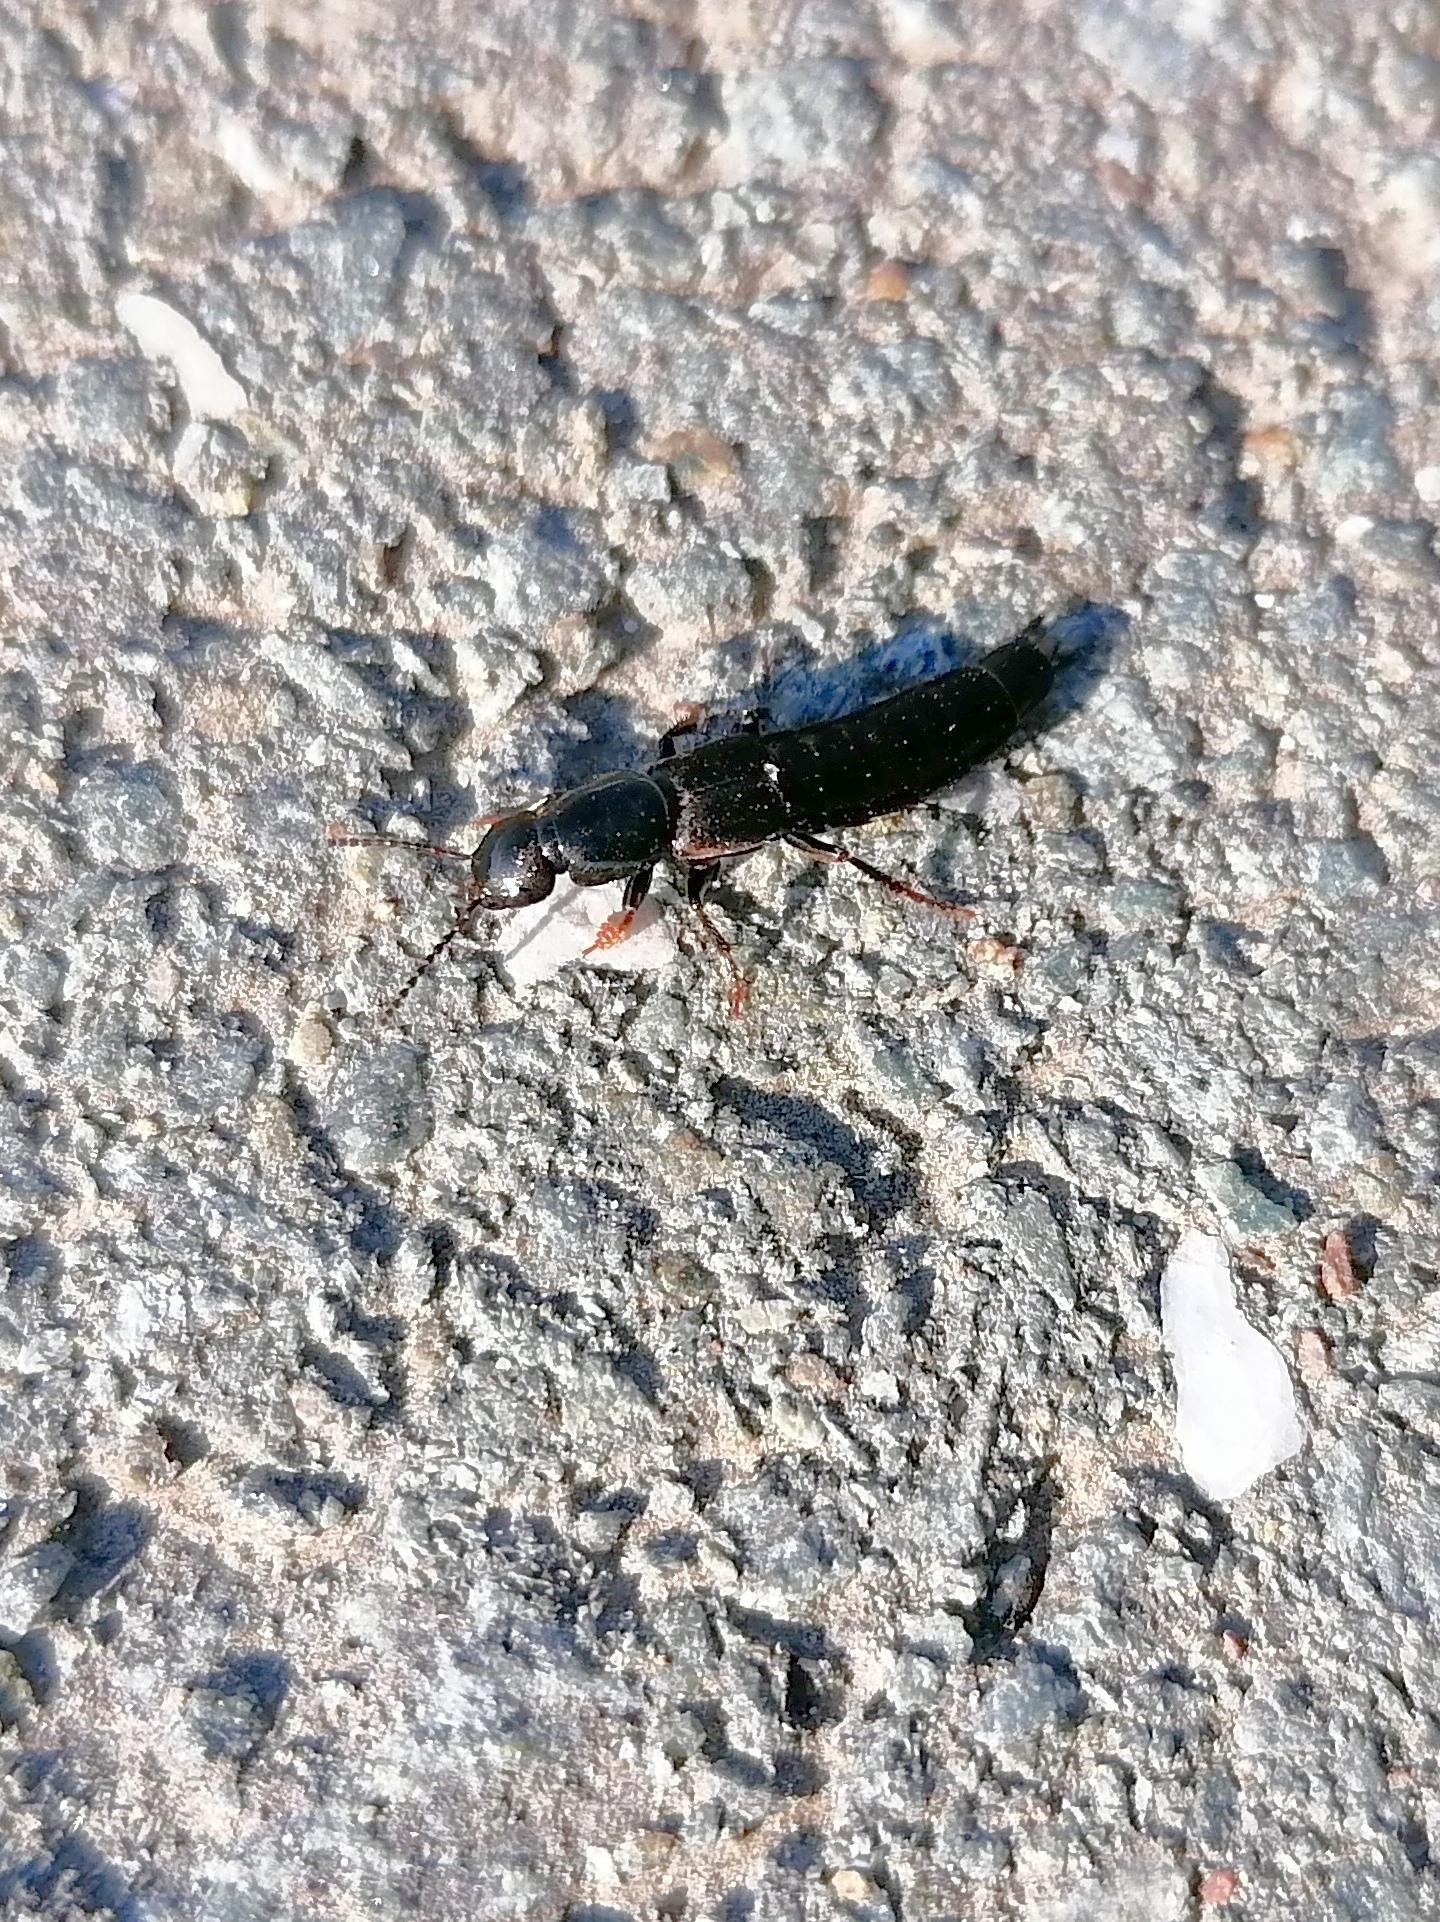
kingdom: Animalia
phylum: Arthropoda
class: Insecta
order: Coleoptera
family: Staphylinidae
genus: Ocypus
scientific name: Ocypus fuscatus
